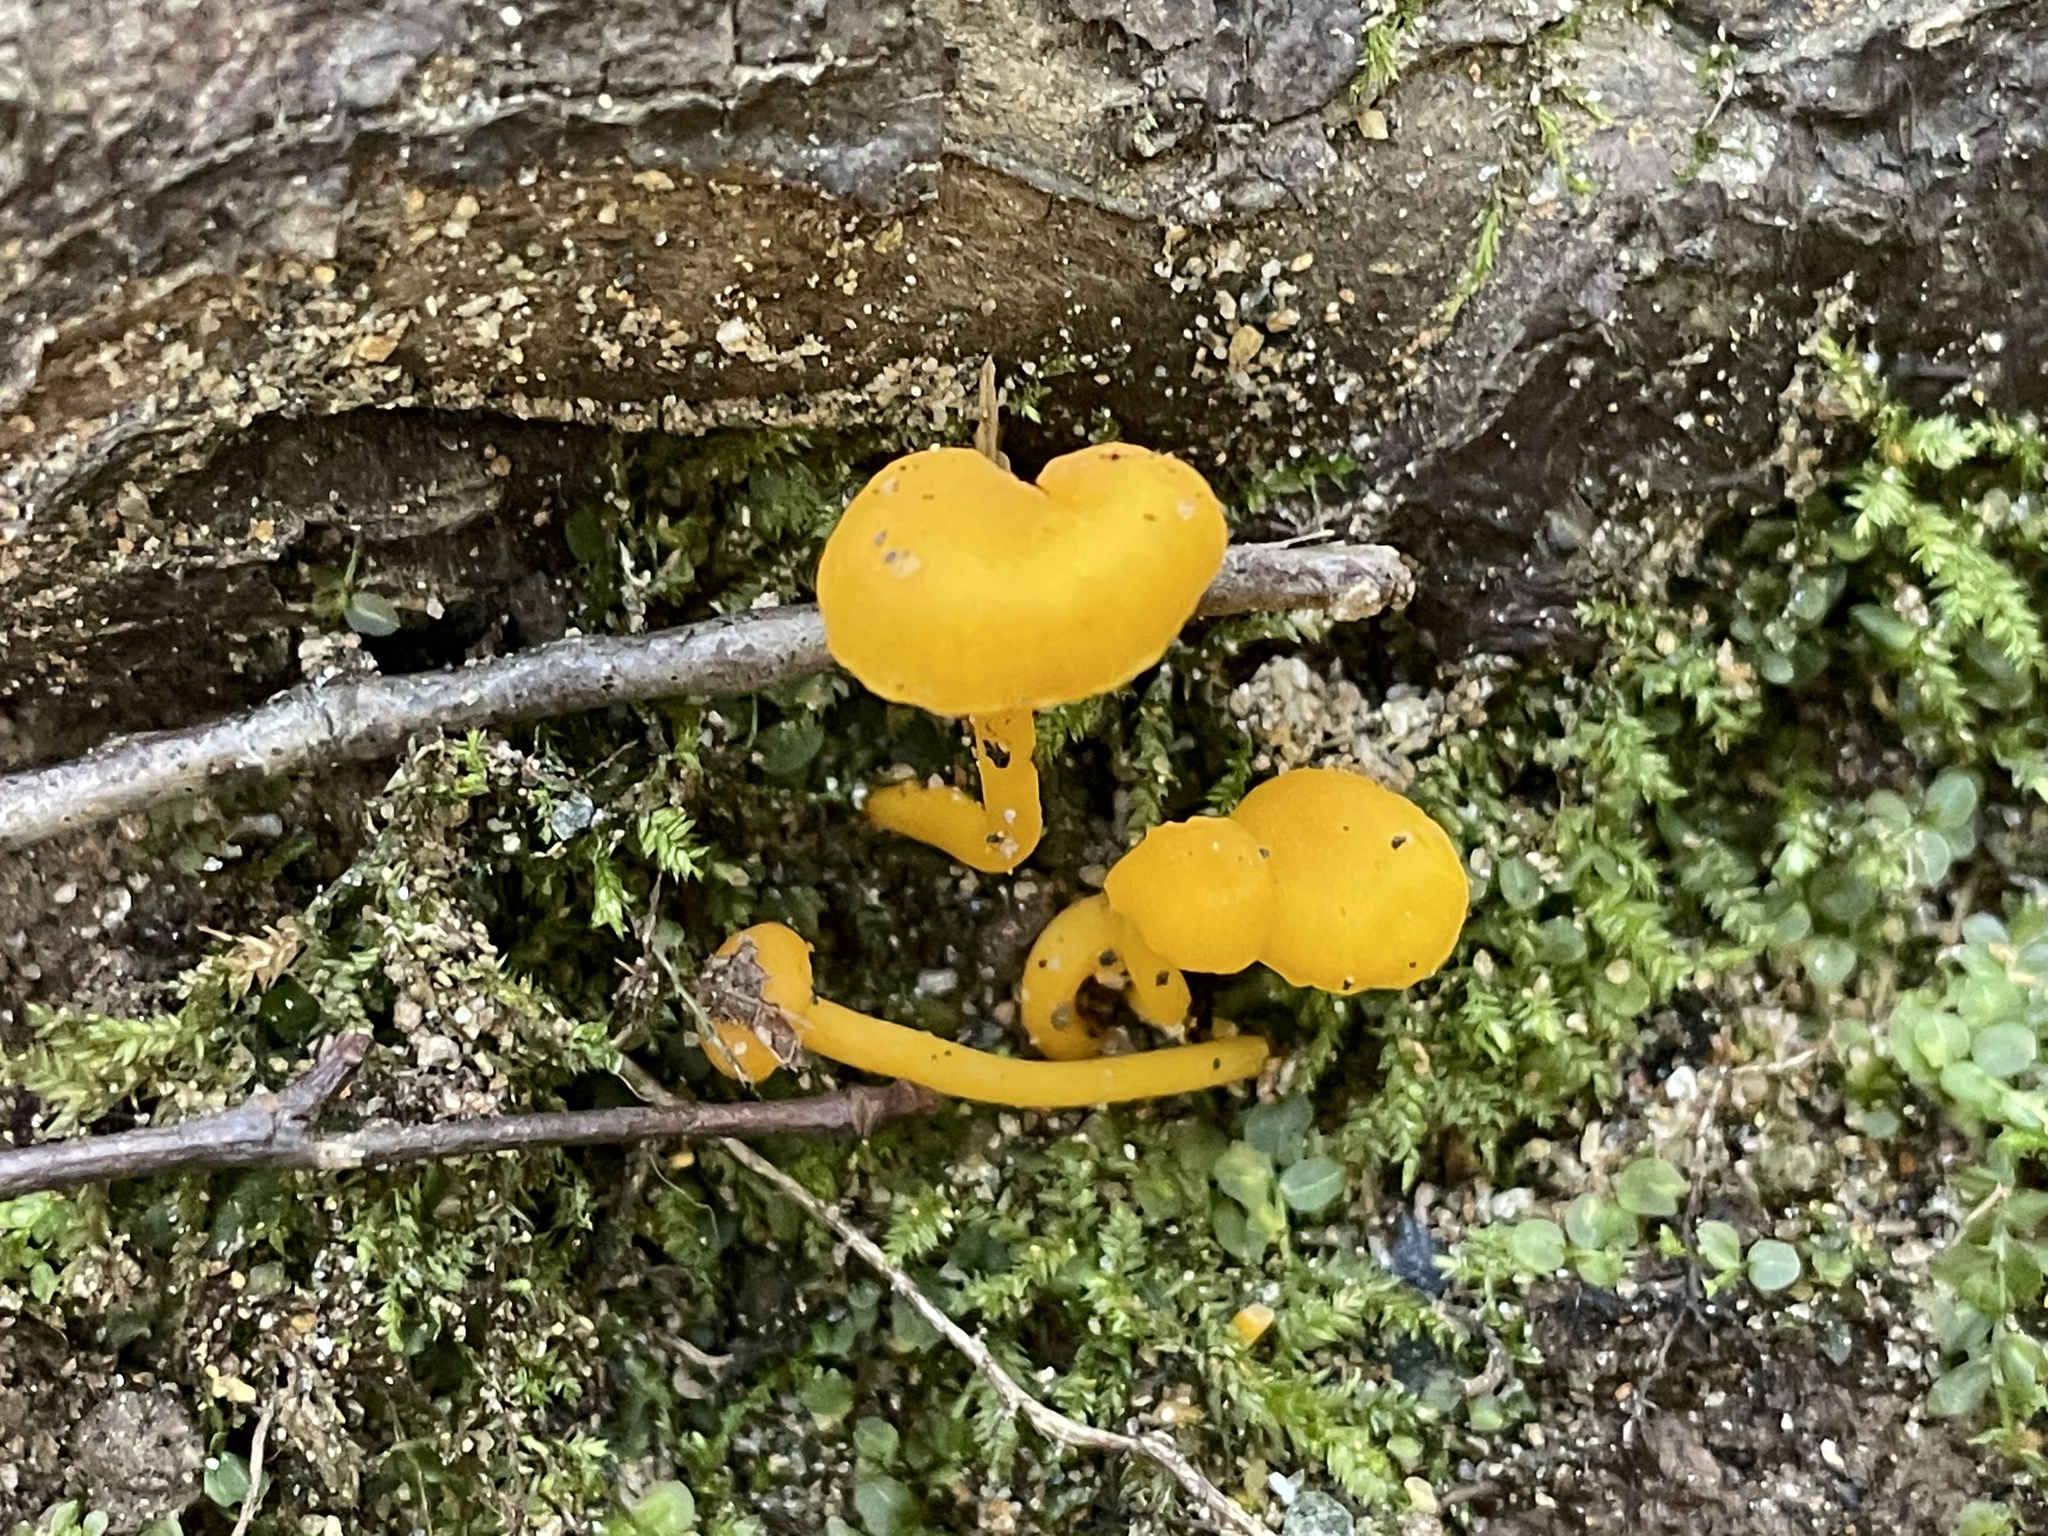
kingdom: Fungi
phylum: Basidiomycota
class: Agaricomycetes
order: Cantharellales
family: Hydnaceae
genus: Cantharellus
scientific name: Cantharellus minor
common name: Small chanterelle
